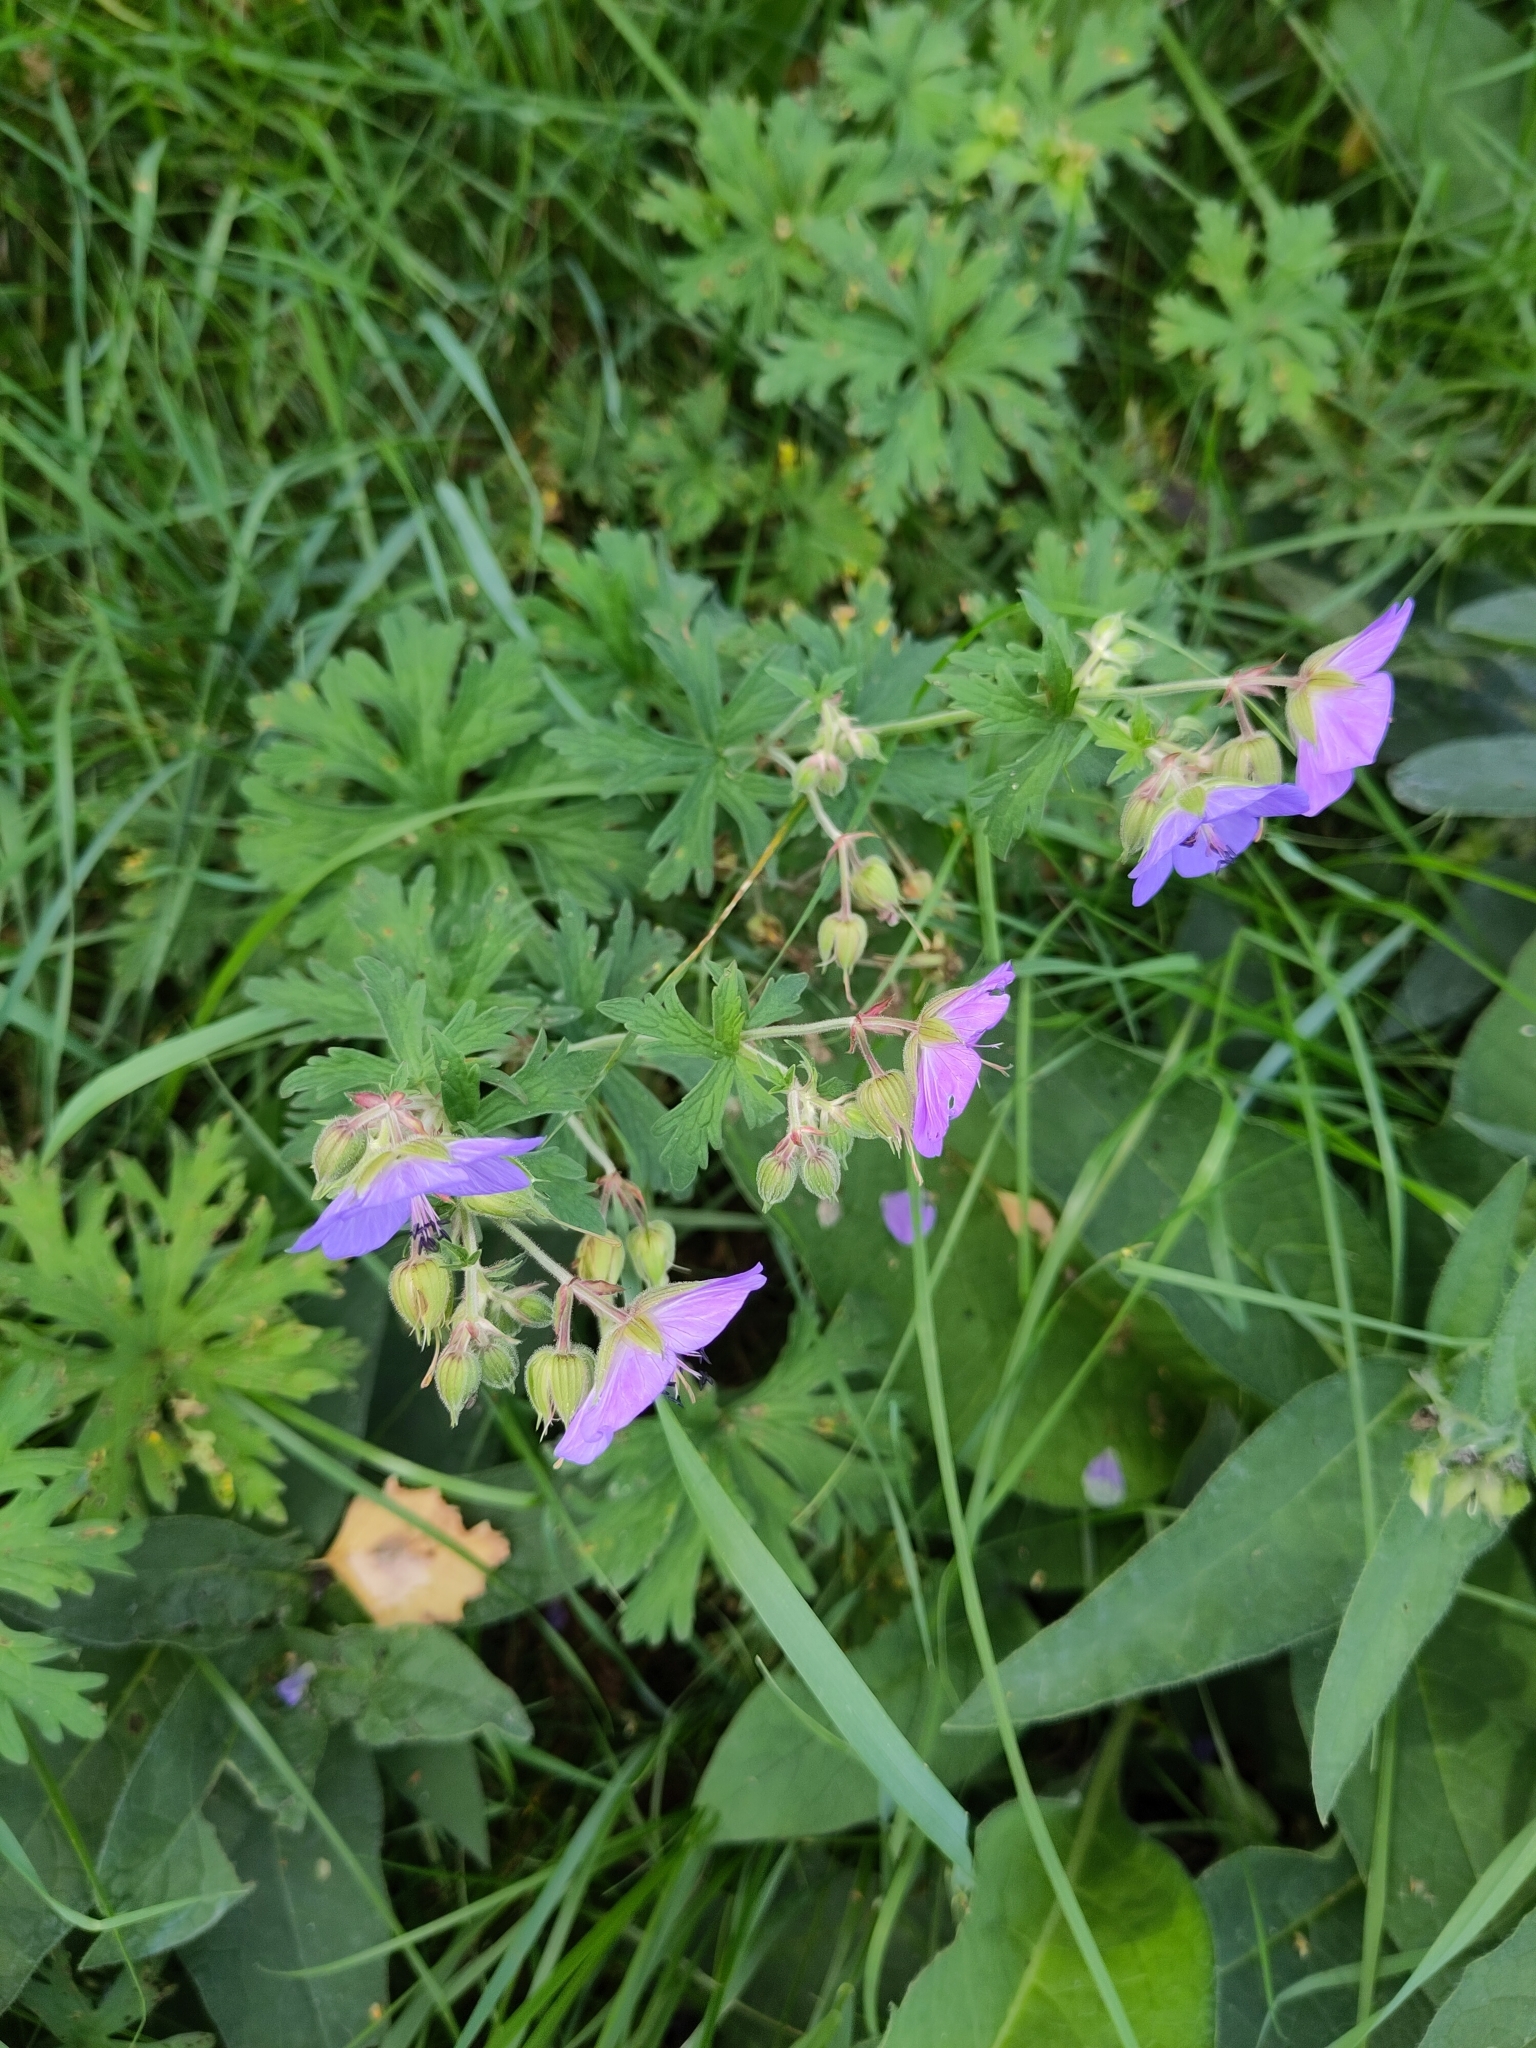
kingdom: Plantae
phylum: Tracheophyta
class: Magnoliopsida
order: Geraniales
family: Geraniaceae
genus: Geranium
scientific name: Geranium pratense
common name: Meadow crane's-bill
